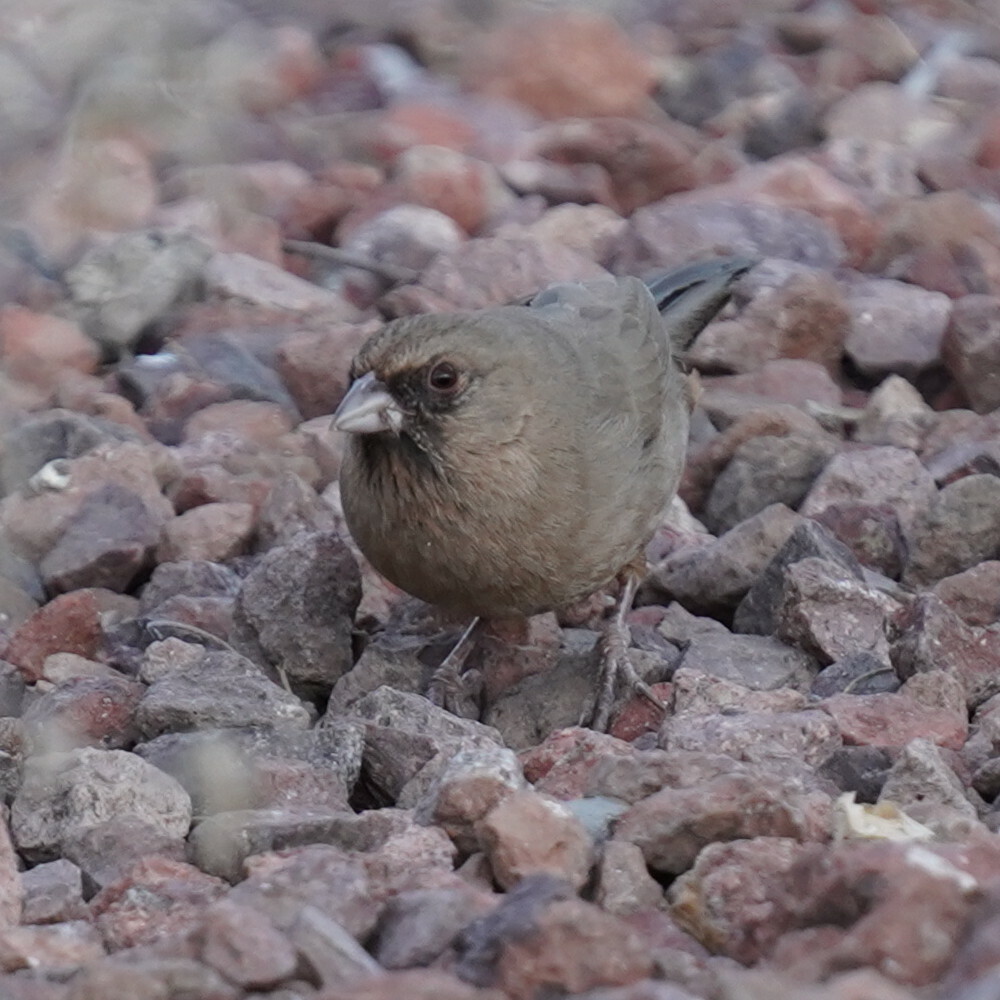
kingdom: Animalia
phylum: Chordata
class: Aves
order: Passeriformes
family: Passerellidae
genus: Melozone
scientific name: Melozone aberti
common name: Abert's towhee
